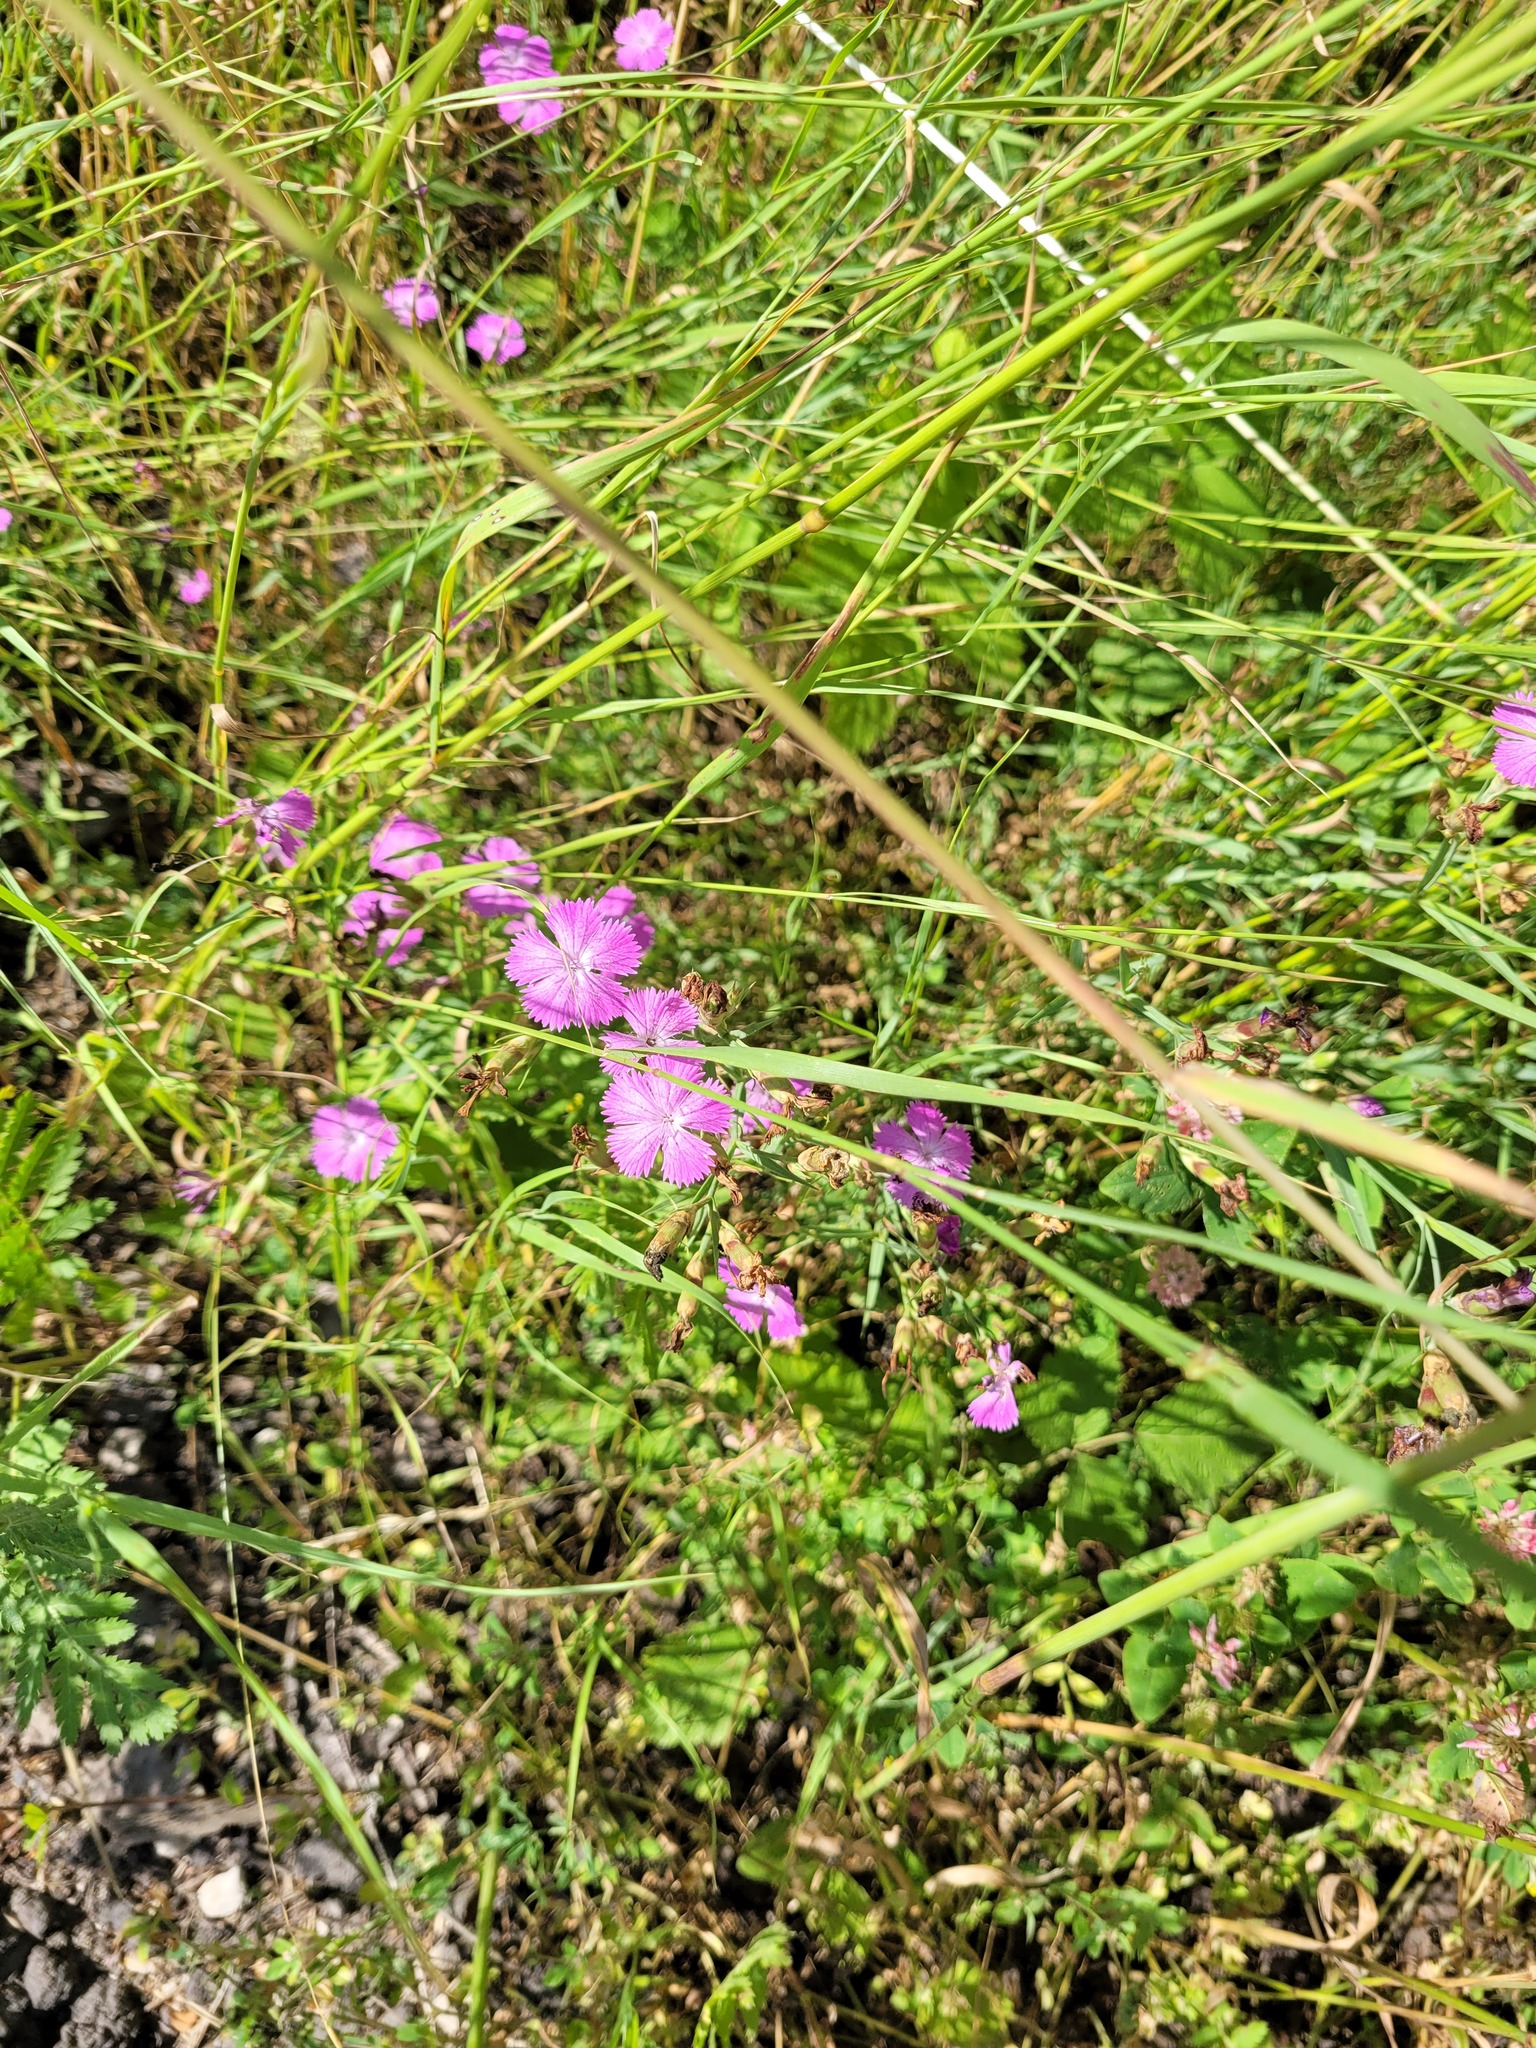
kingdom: Plantae
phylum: Tracheophyta
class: Magnoliopsida
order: Caryophyllales
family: Caryophyllaceae
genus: Dianthus
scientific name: Dianthus chinensis
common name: Rainbow pink
